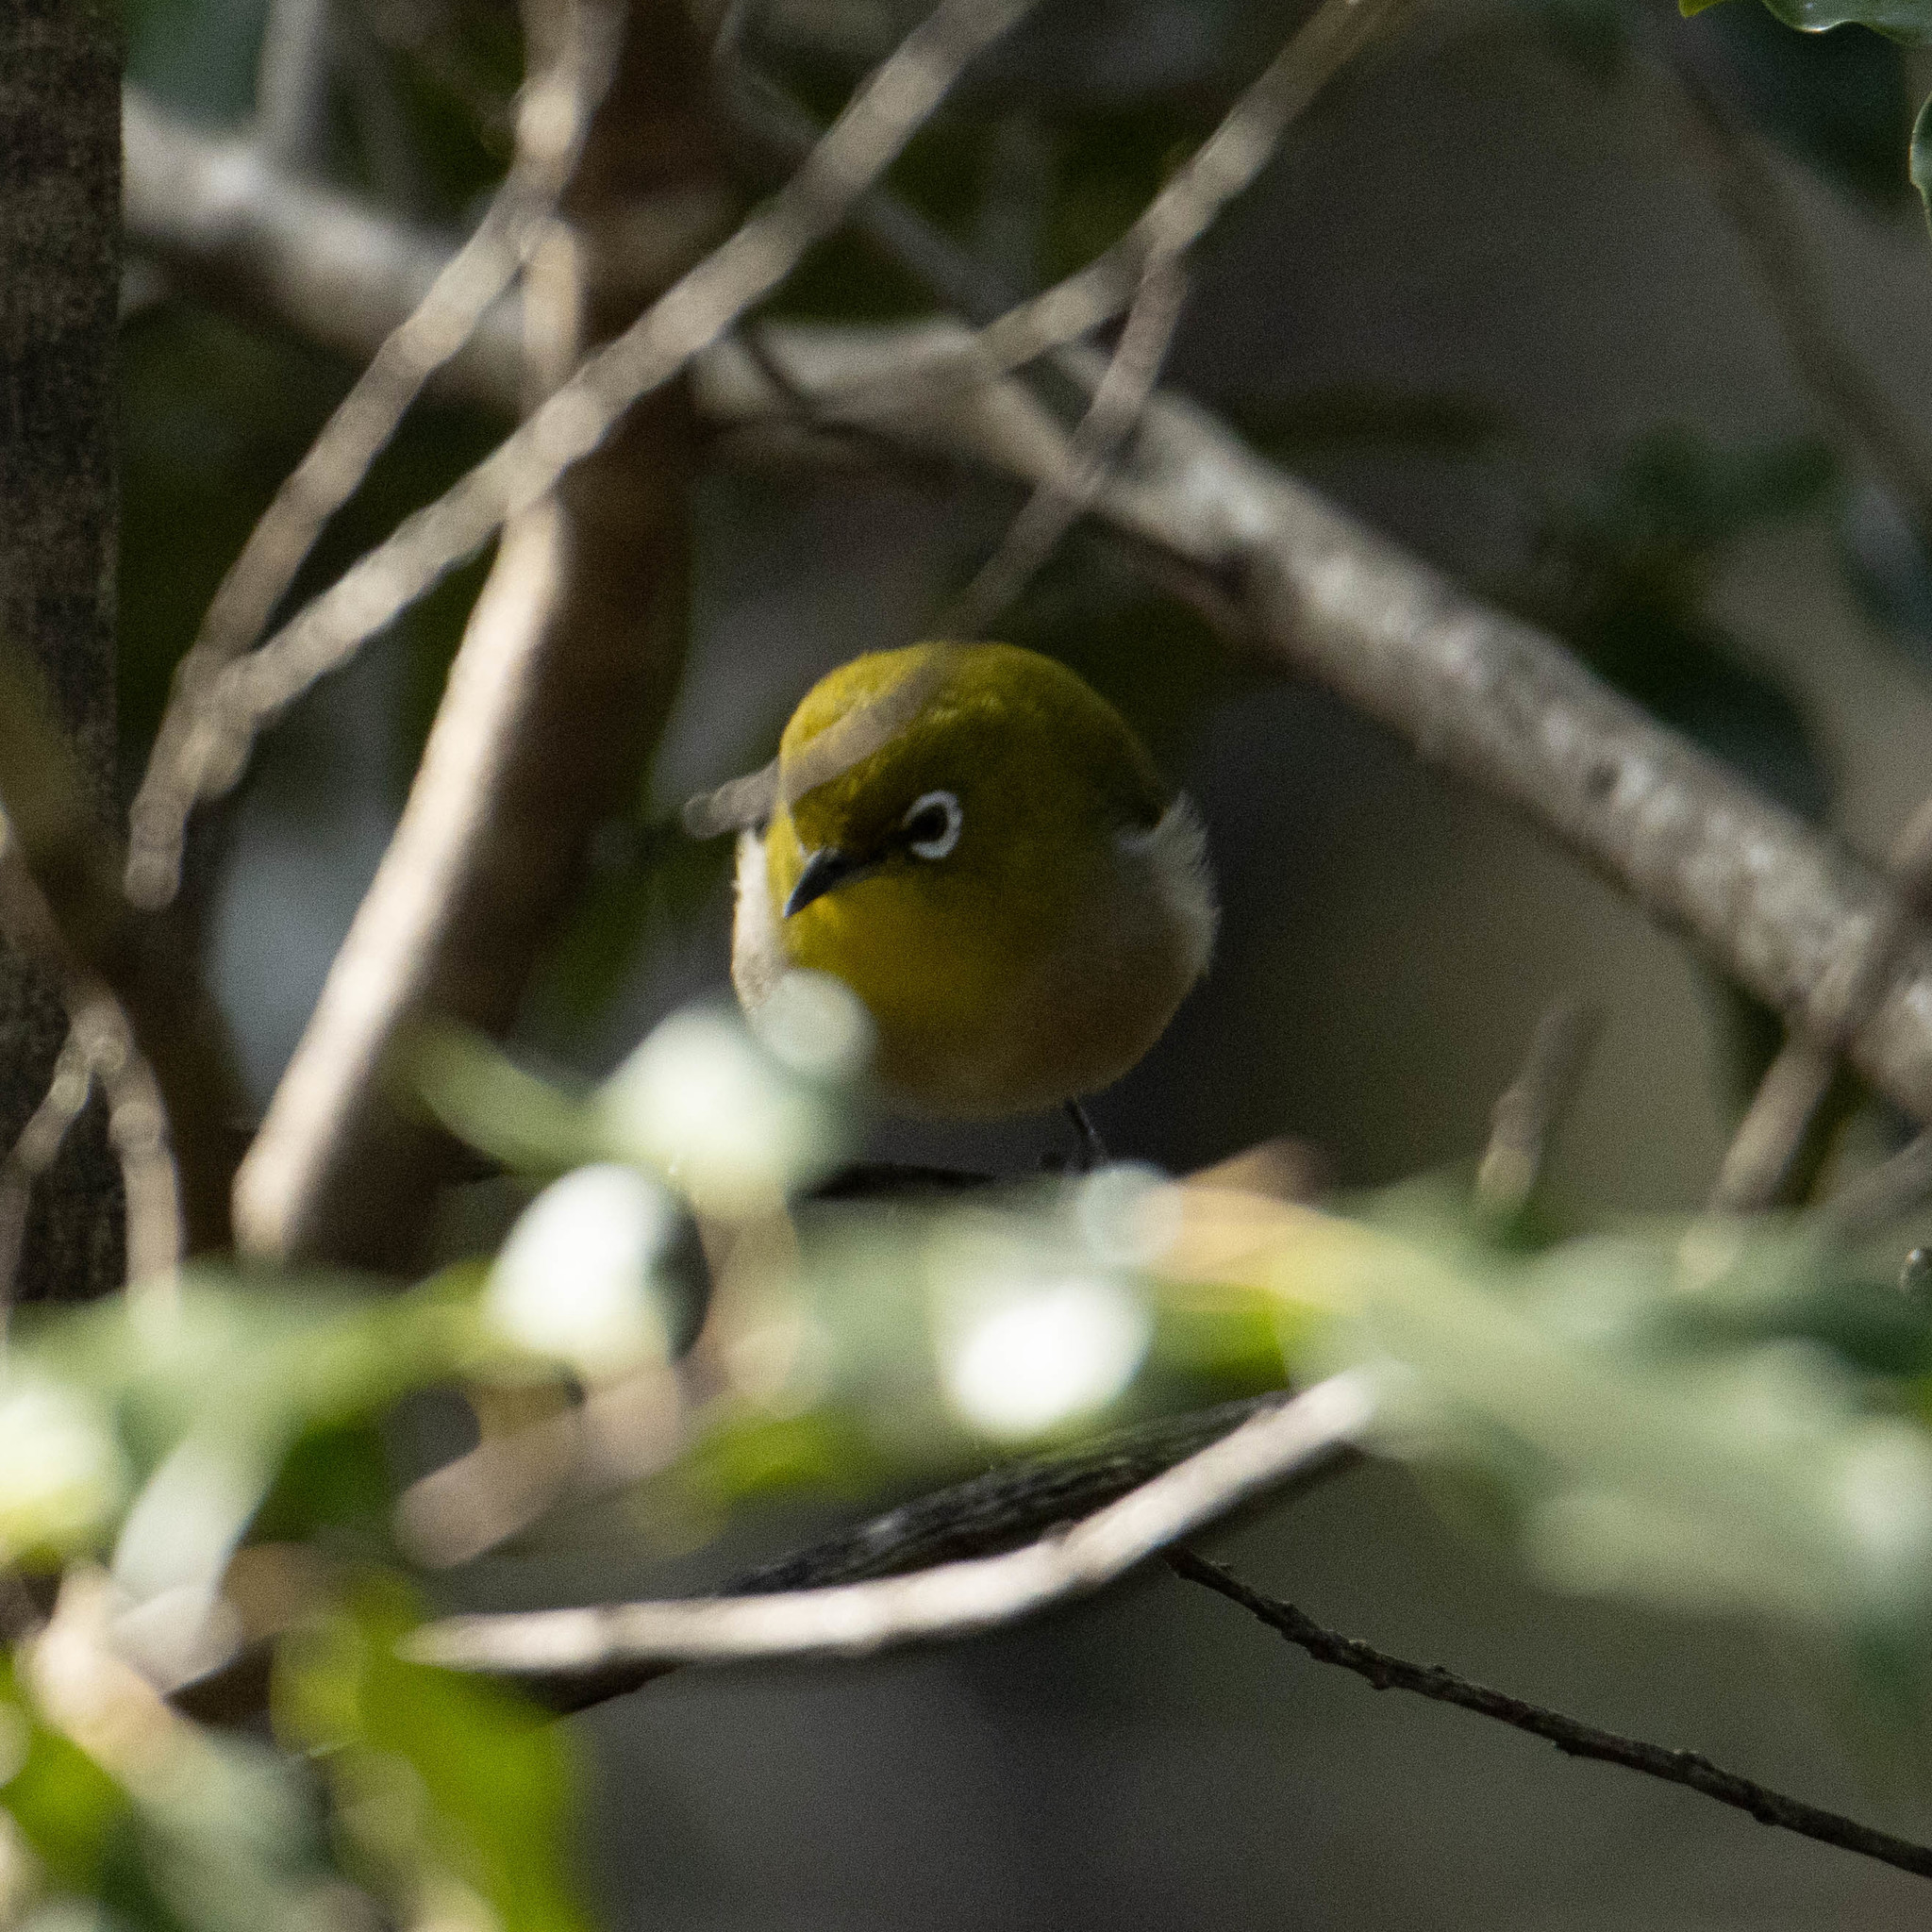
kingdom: Animalia
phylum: Chordata
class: Aves
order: Passeriformes
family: Zosteropidae
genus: Zosterops
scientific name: Zosterops japonicus
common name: Japanese white-eye
